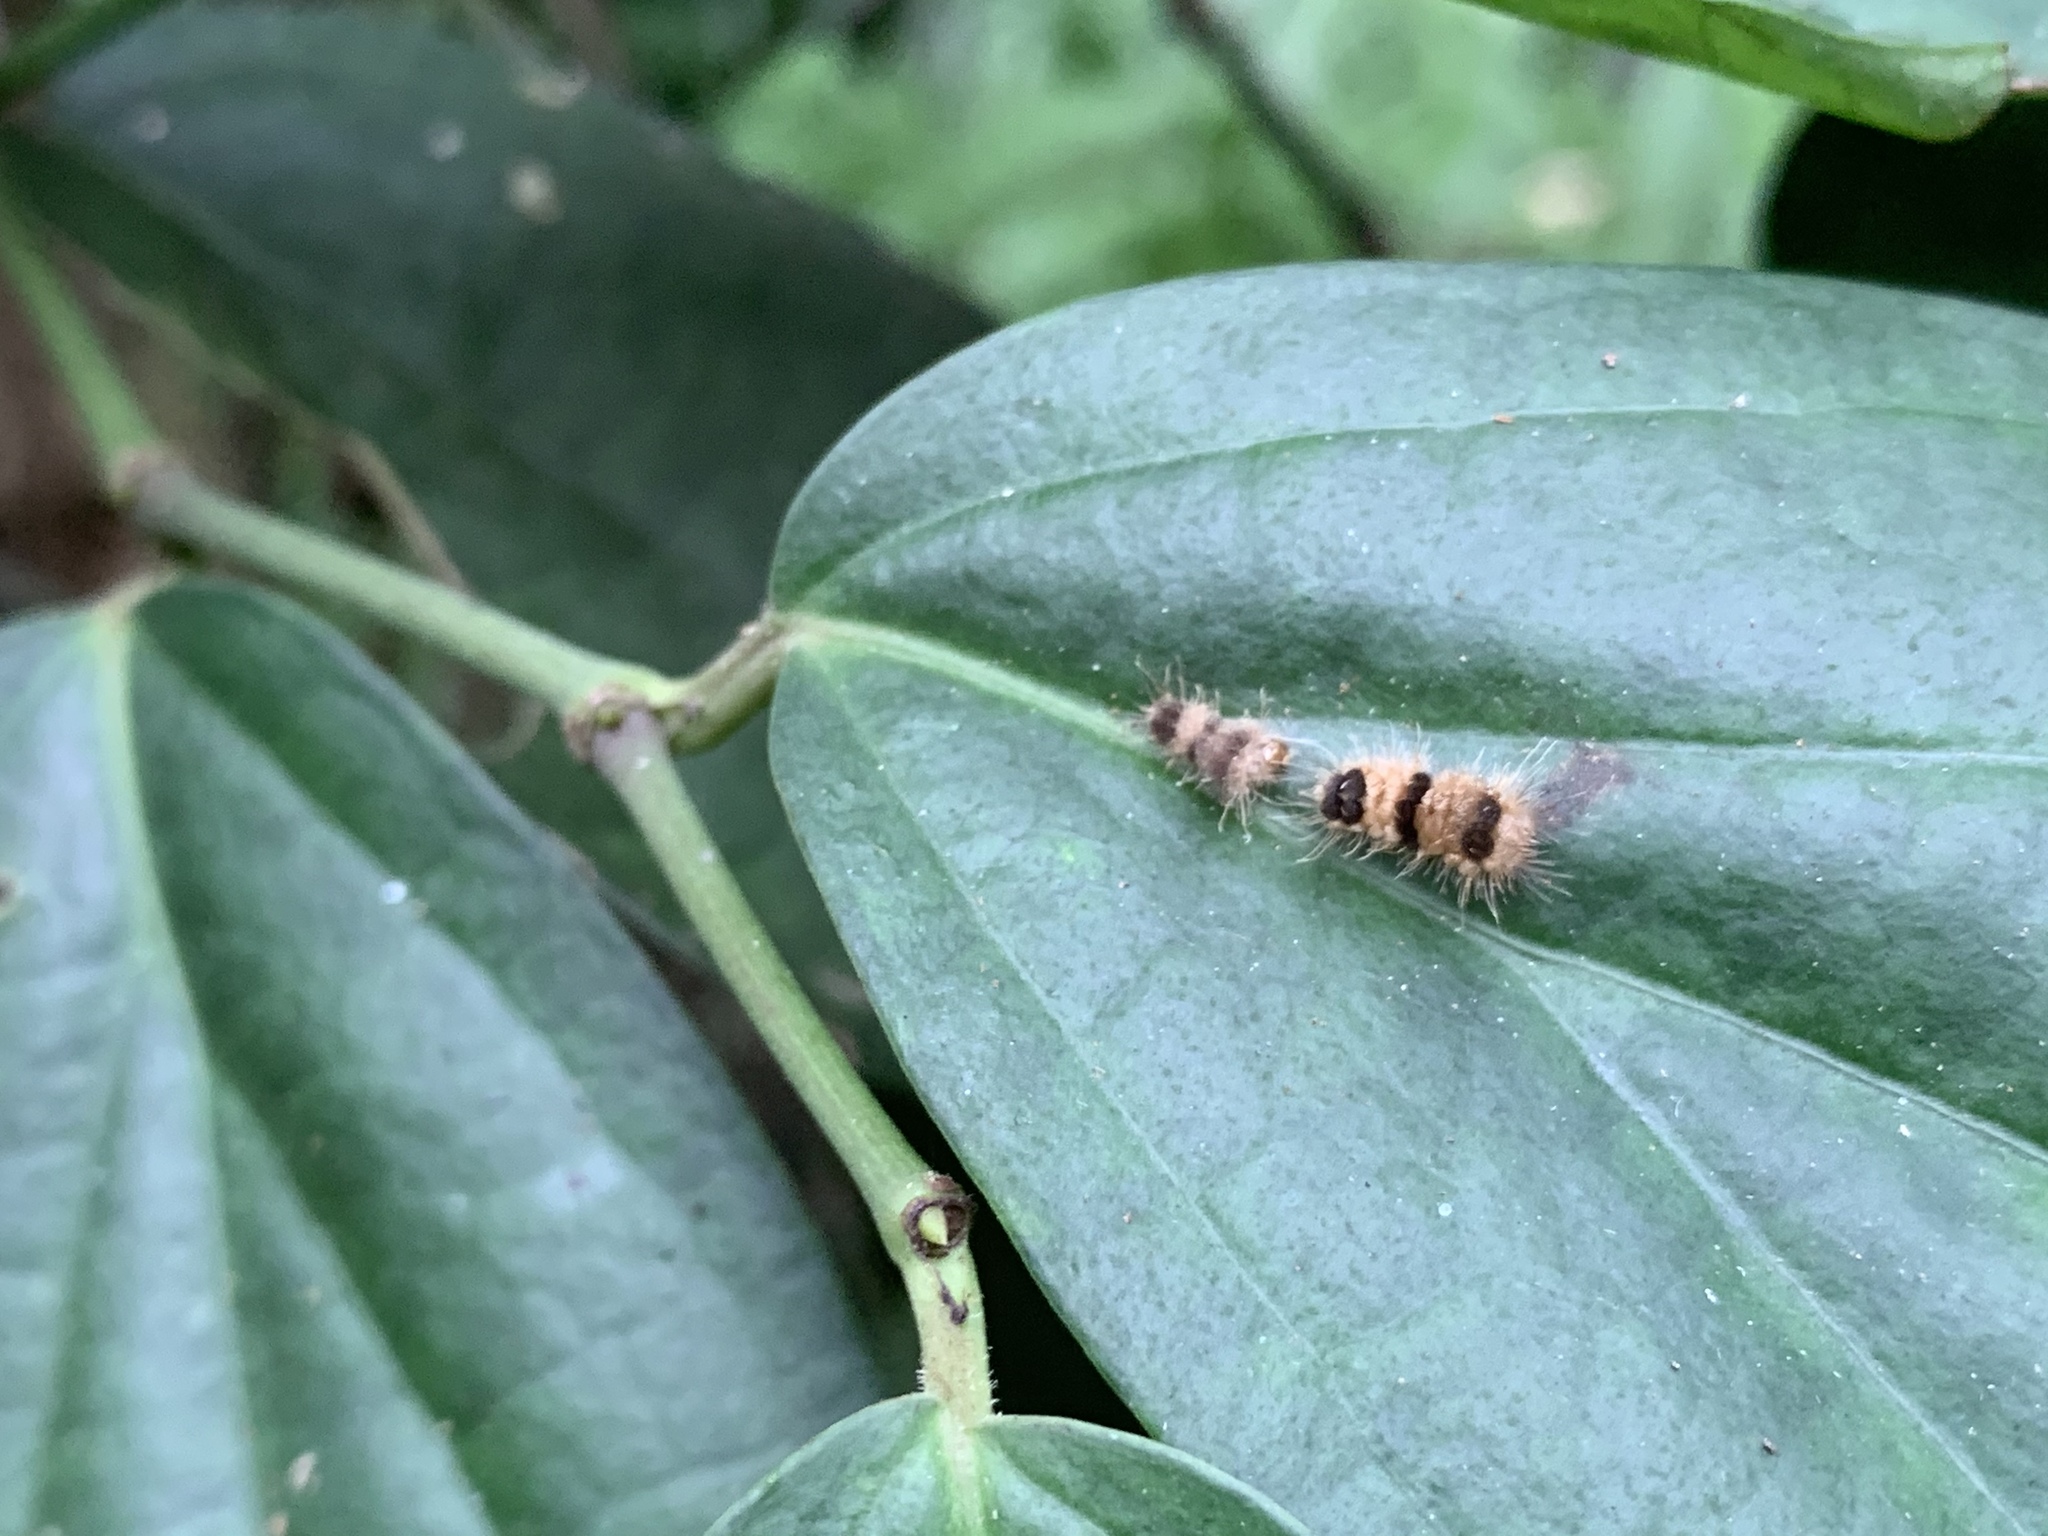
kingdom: Animalia
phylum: Arthropoda
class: Insecta
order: Lepidoptera
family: Erebidae
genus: Miltochrista
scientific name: Miltochrista acteola
